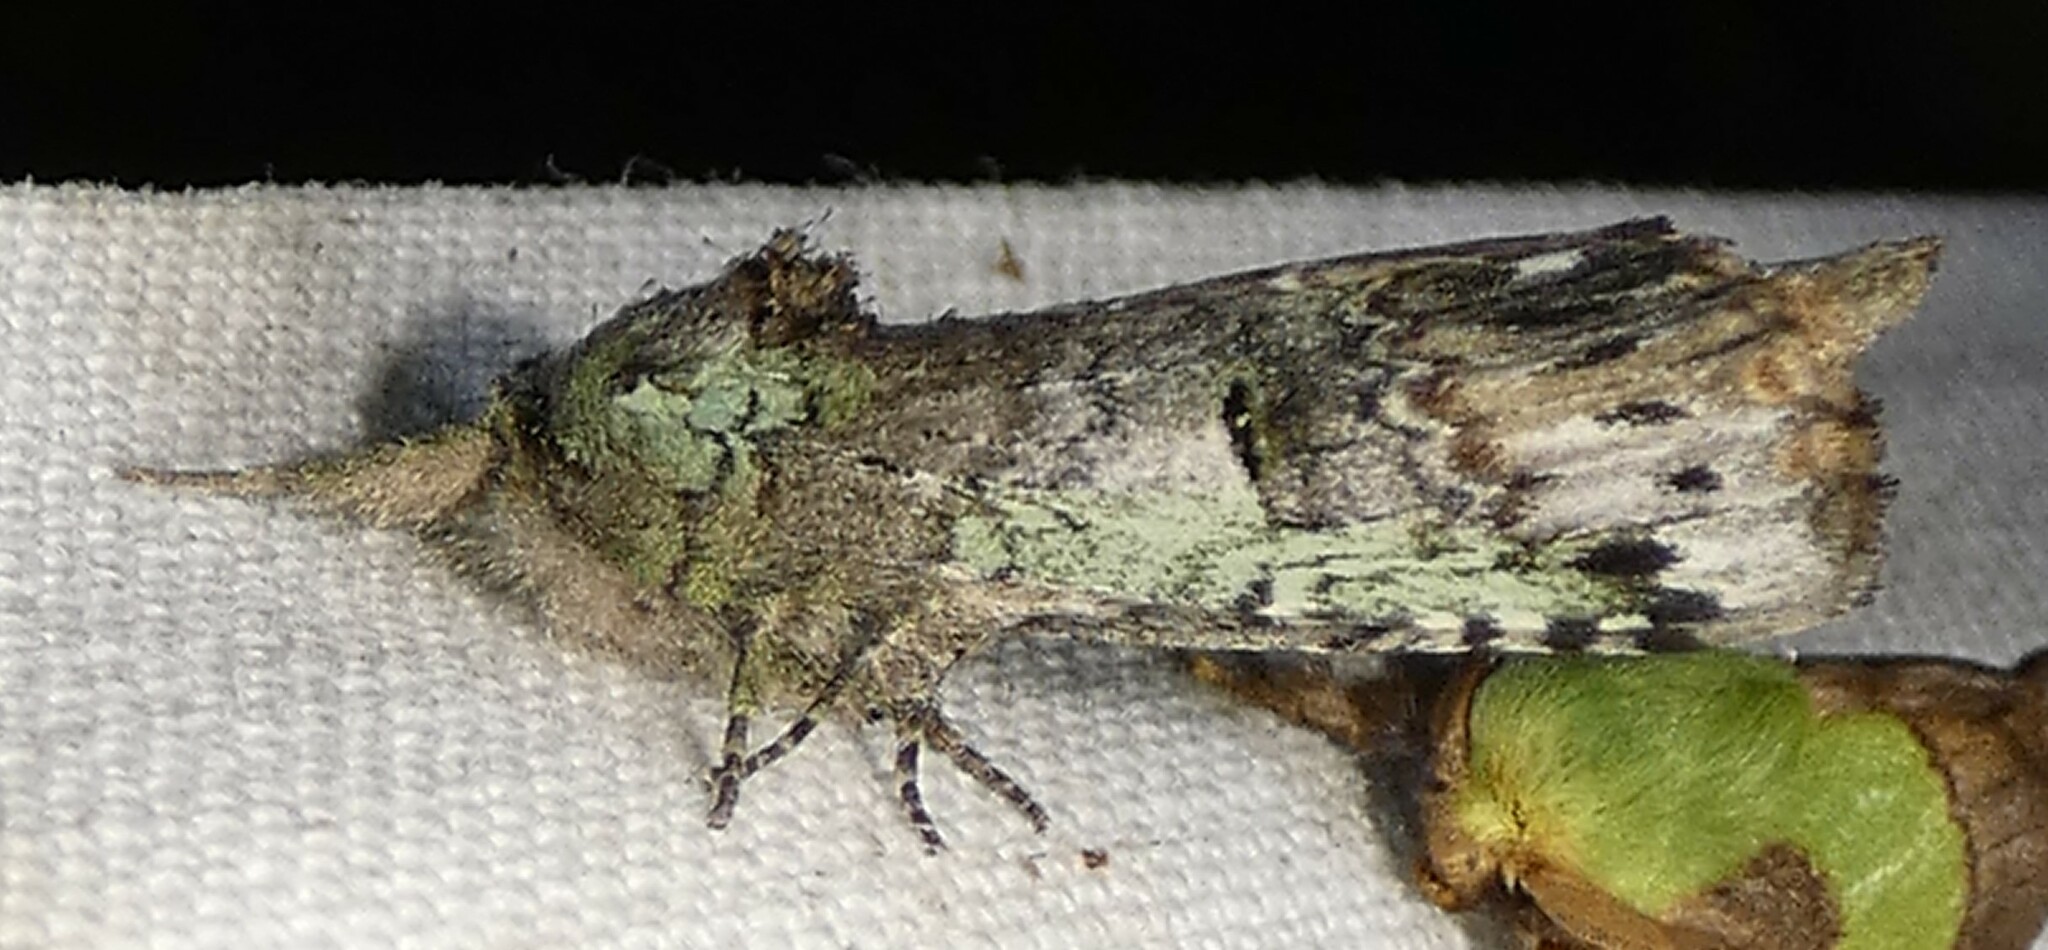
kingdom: Animalia
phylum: Arthropoda
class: Insecta
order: Lepidoptera
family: Notodontidae
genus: Schizura
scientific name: Schizura
